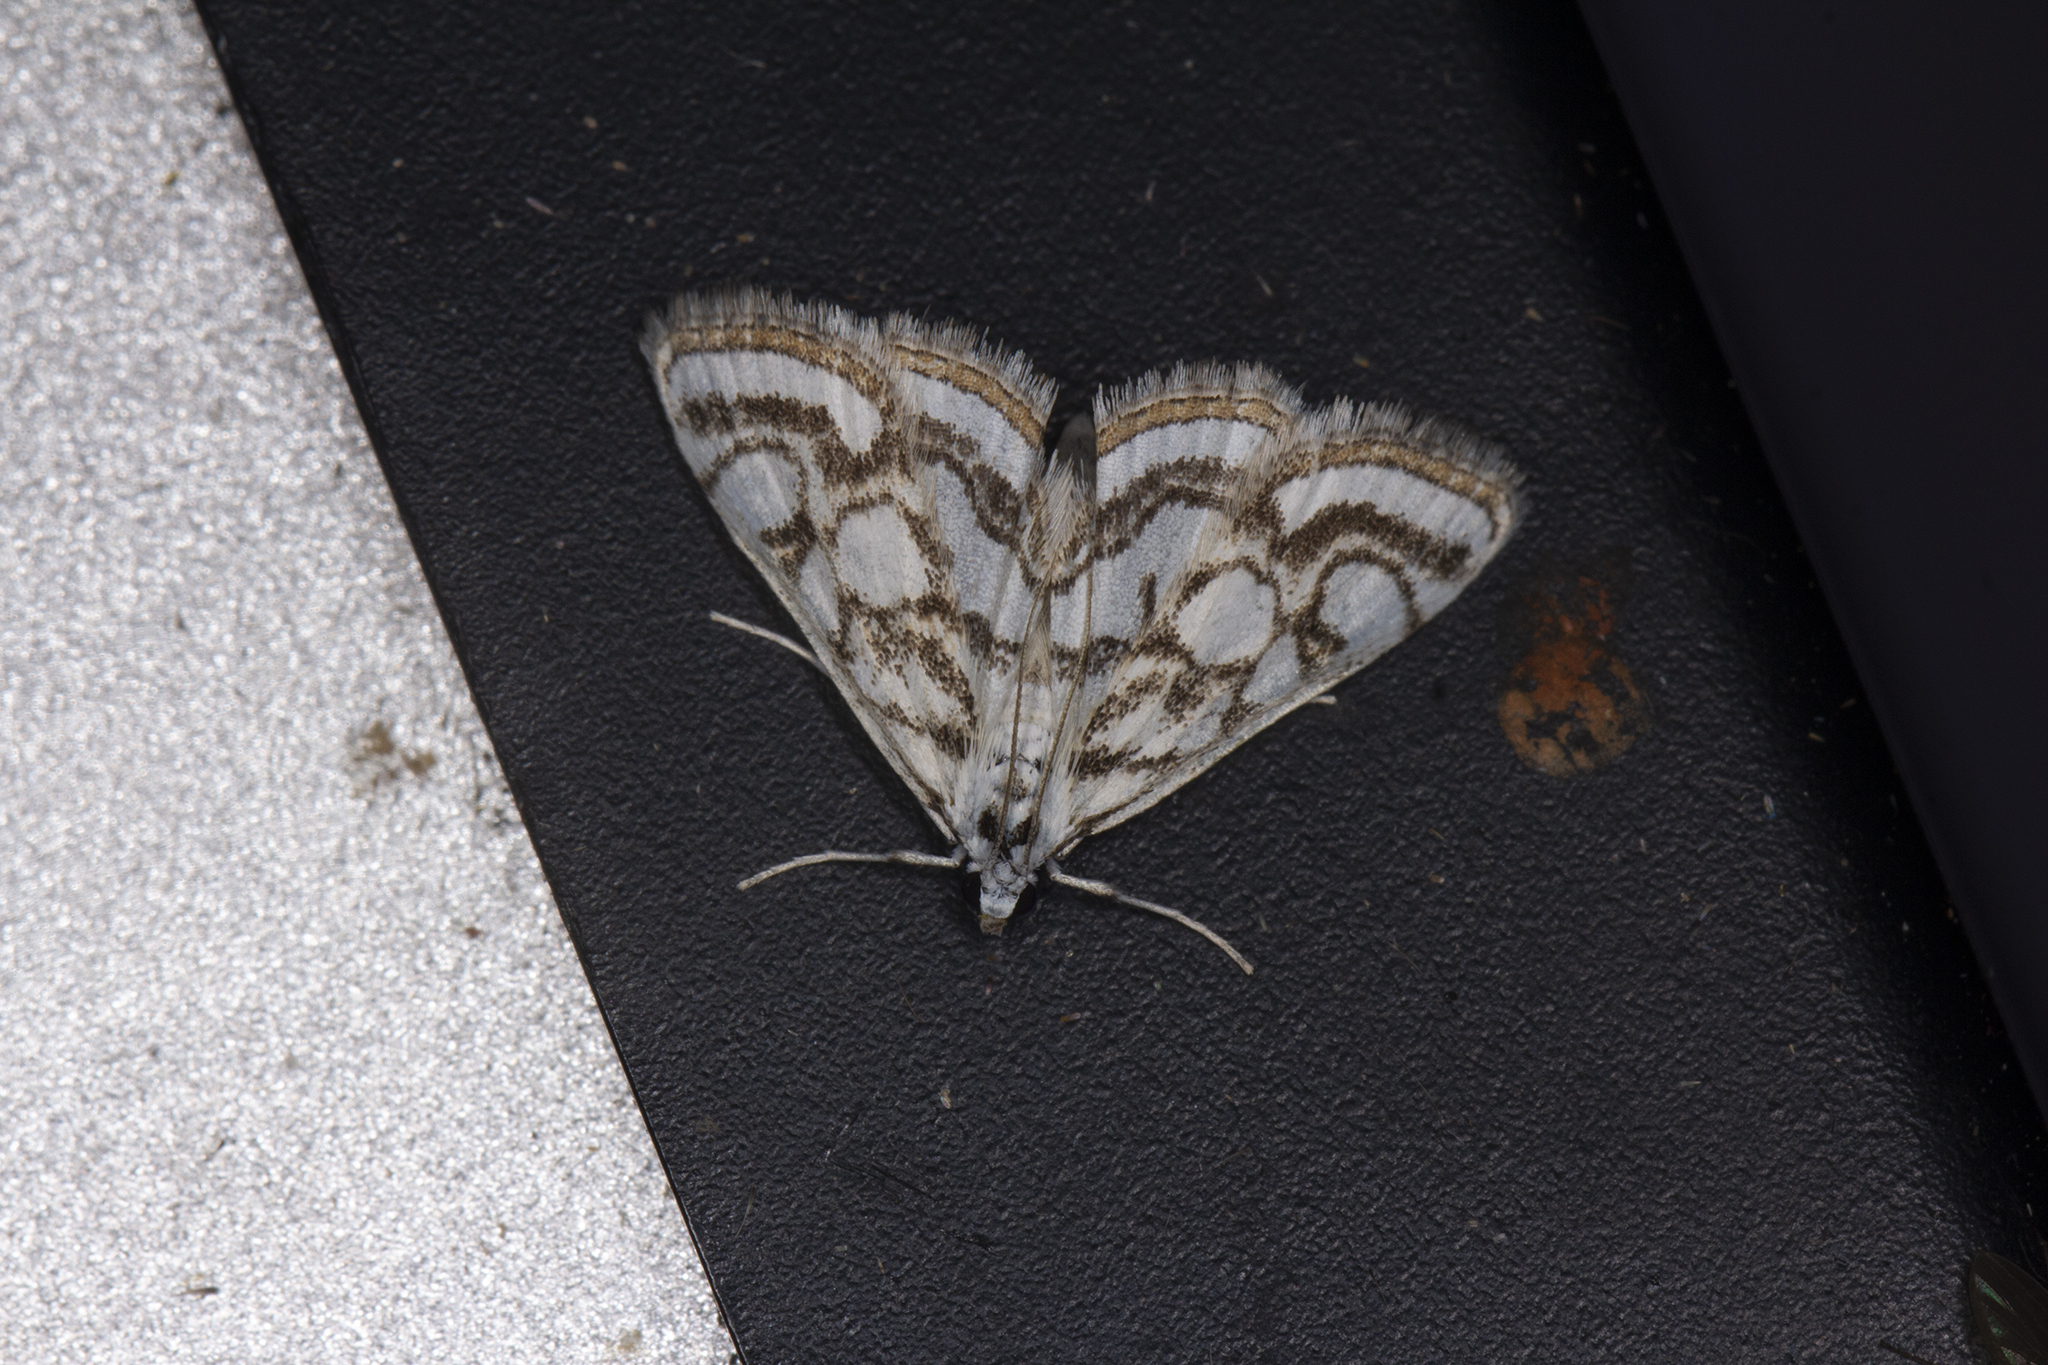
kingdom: Animalia
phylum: Arthropoda
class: Insecta
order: Lepidoptera
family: Crambidae
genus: Nymphula
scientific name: Nymphula nitidulata
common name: Beautiful china mark
